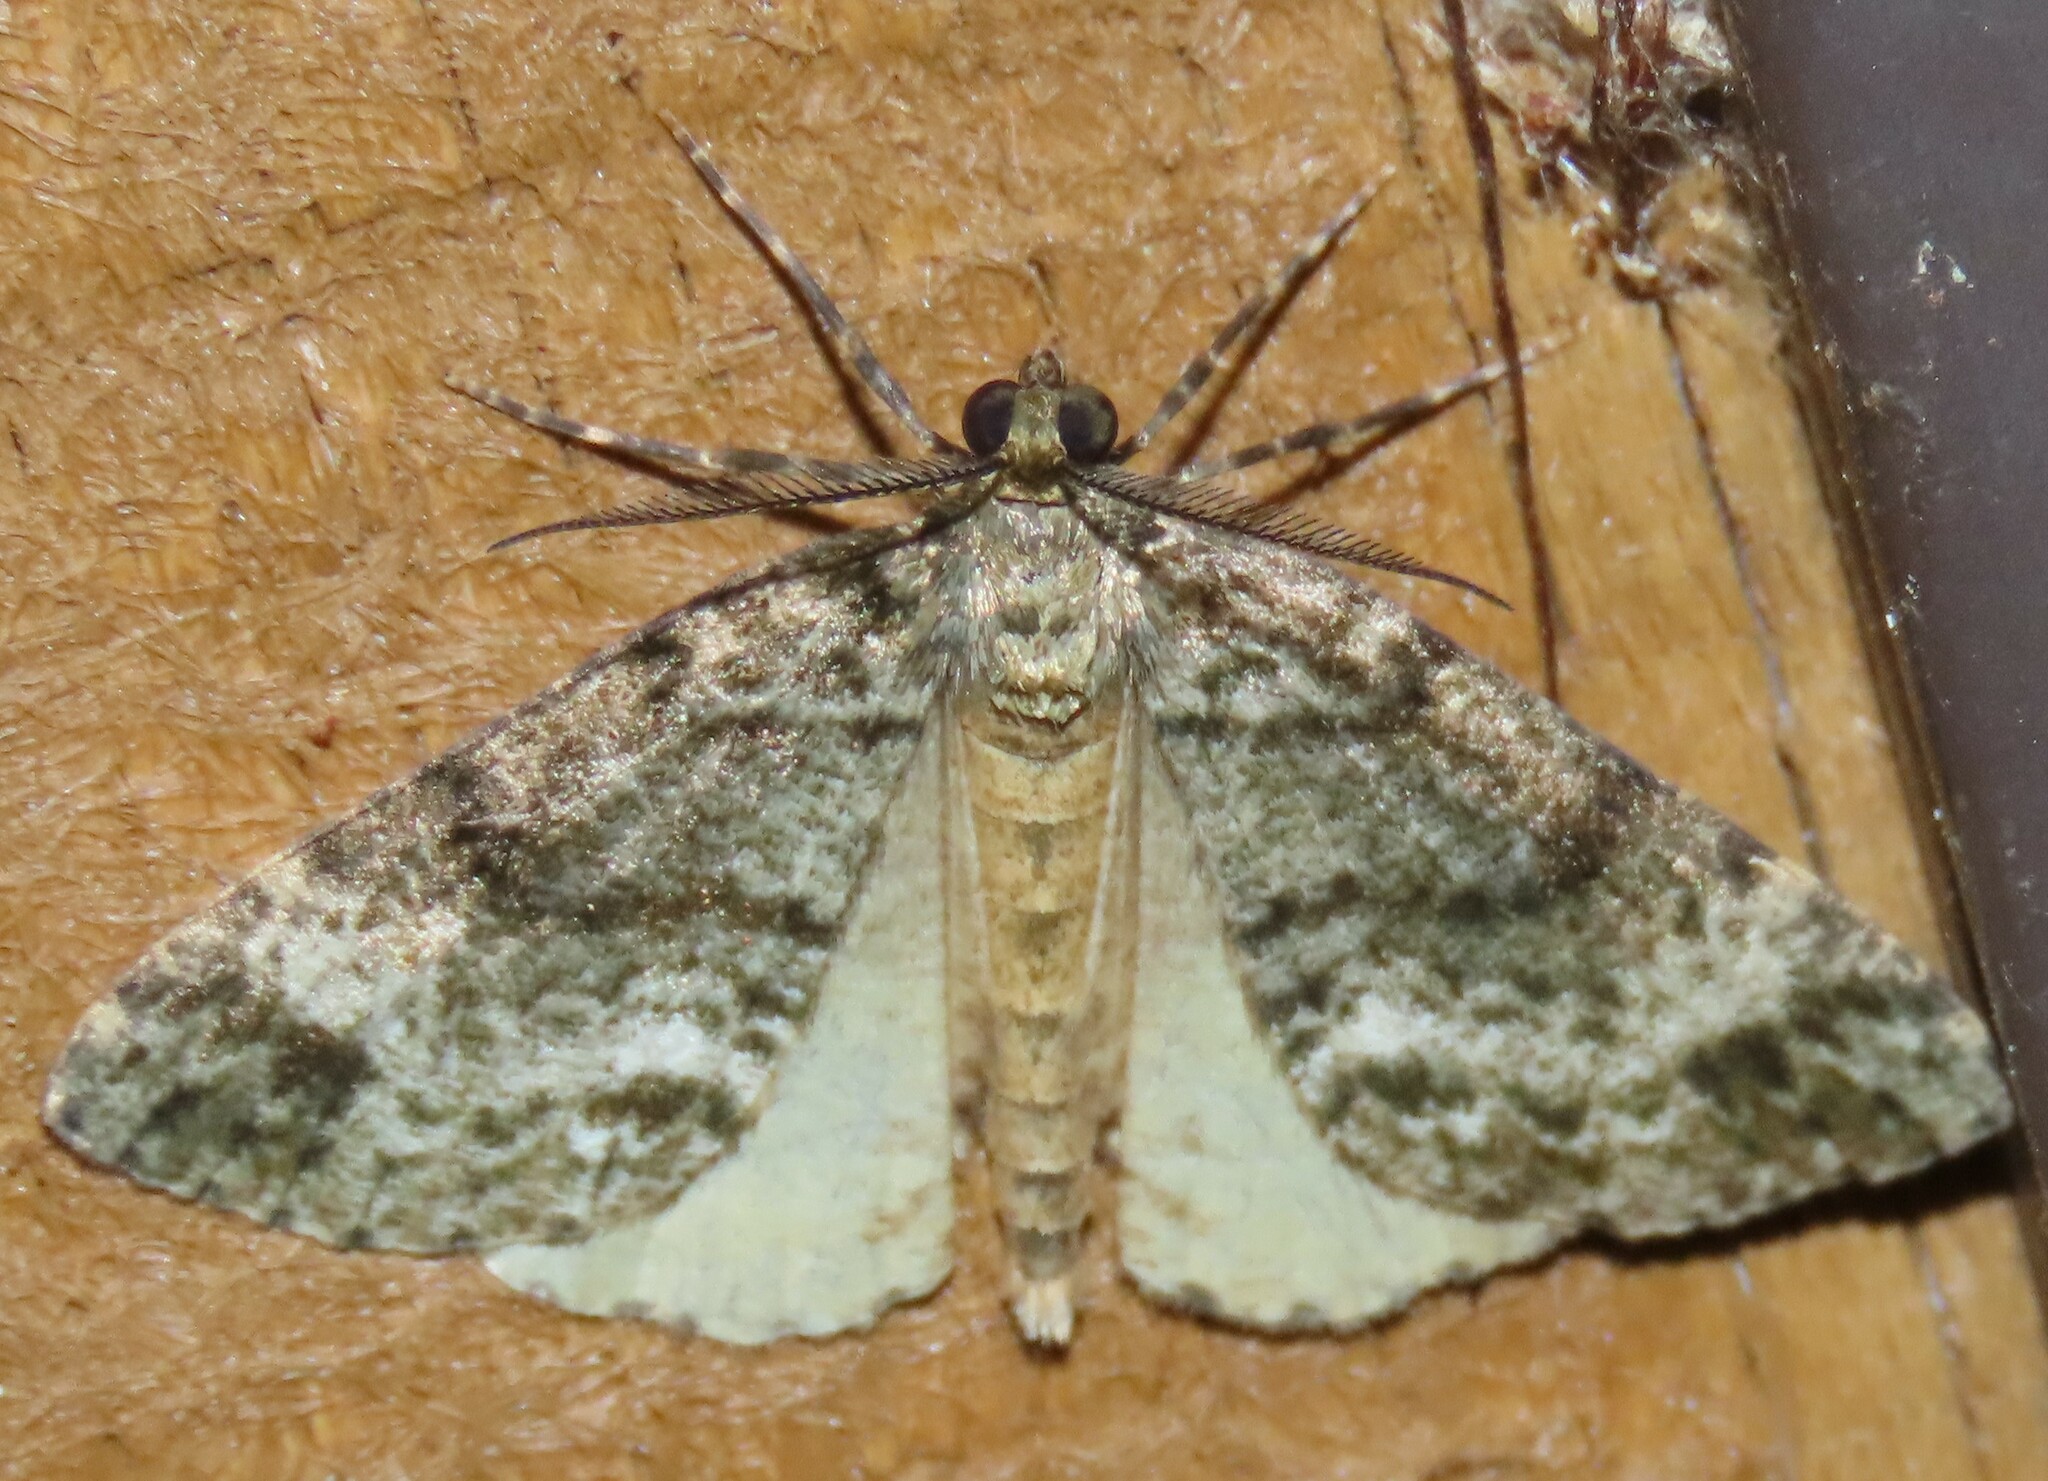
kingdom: Animalia
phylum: Arthropoda
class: Insecta
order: Lepidoptera
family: Geometridae
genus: Pseudocoremia
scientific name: Pseudocoremia indistincta
